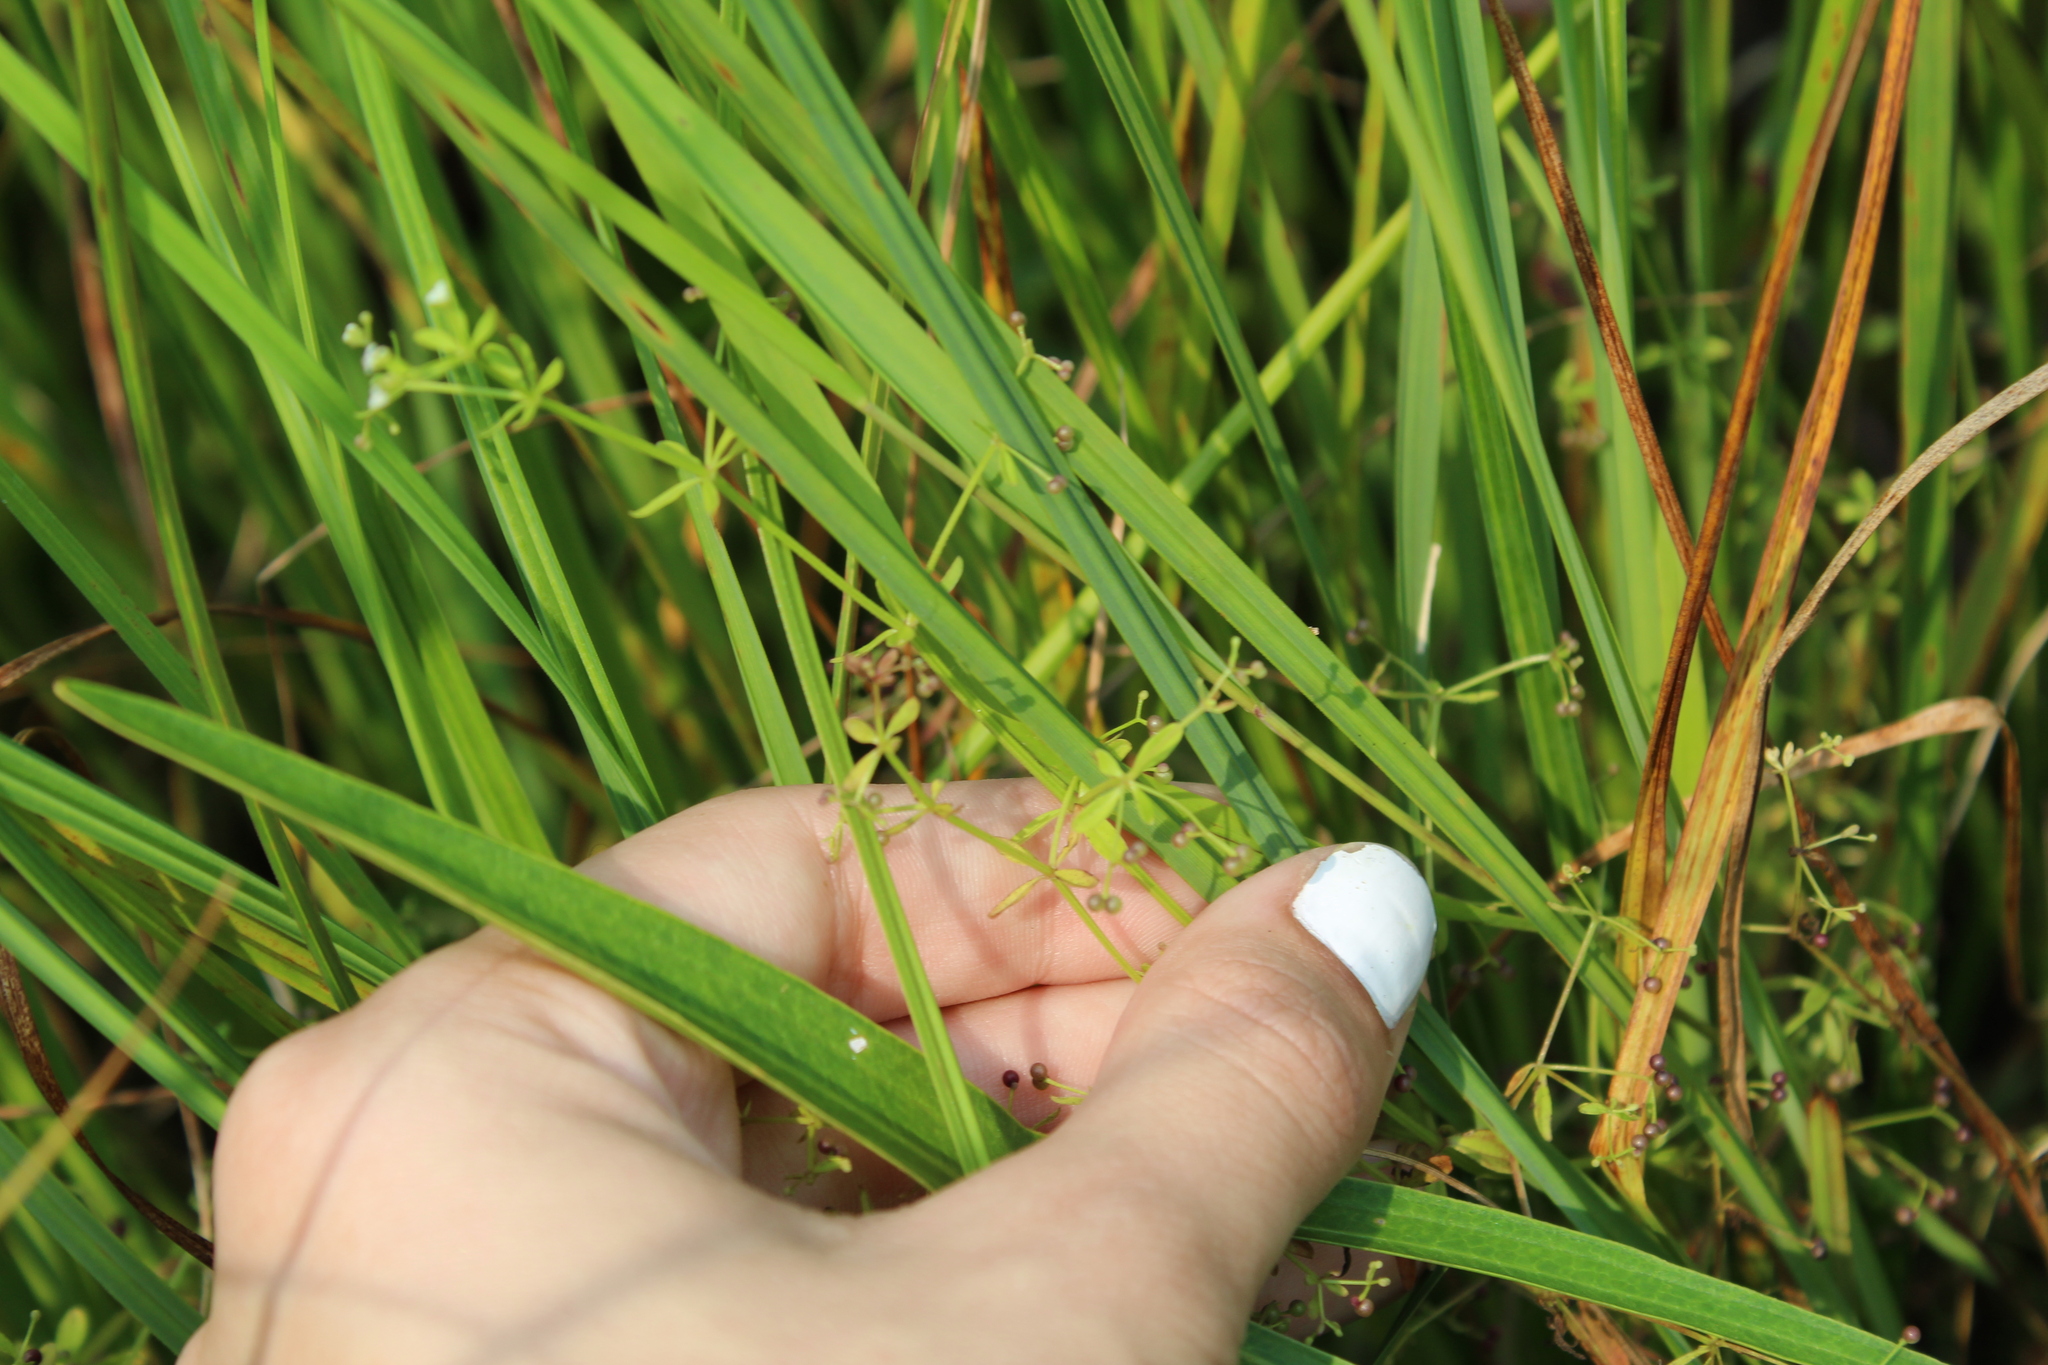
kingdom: Plantae
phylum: Tracheophyta
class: Magnoliopsida
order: Gentianales
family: Rubiaceae
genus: Galium
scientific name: Galium palustre
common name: Common marsh-bedstraw
